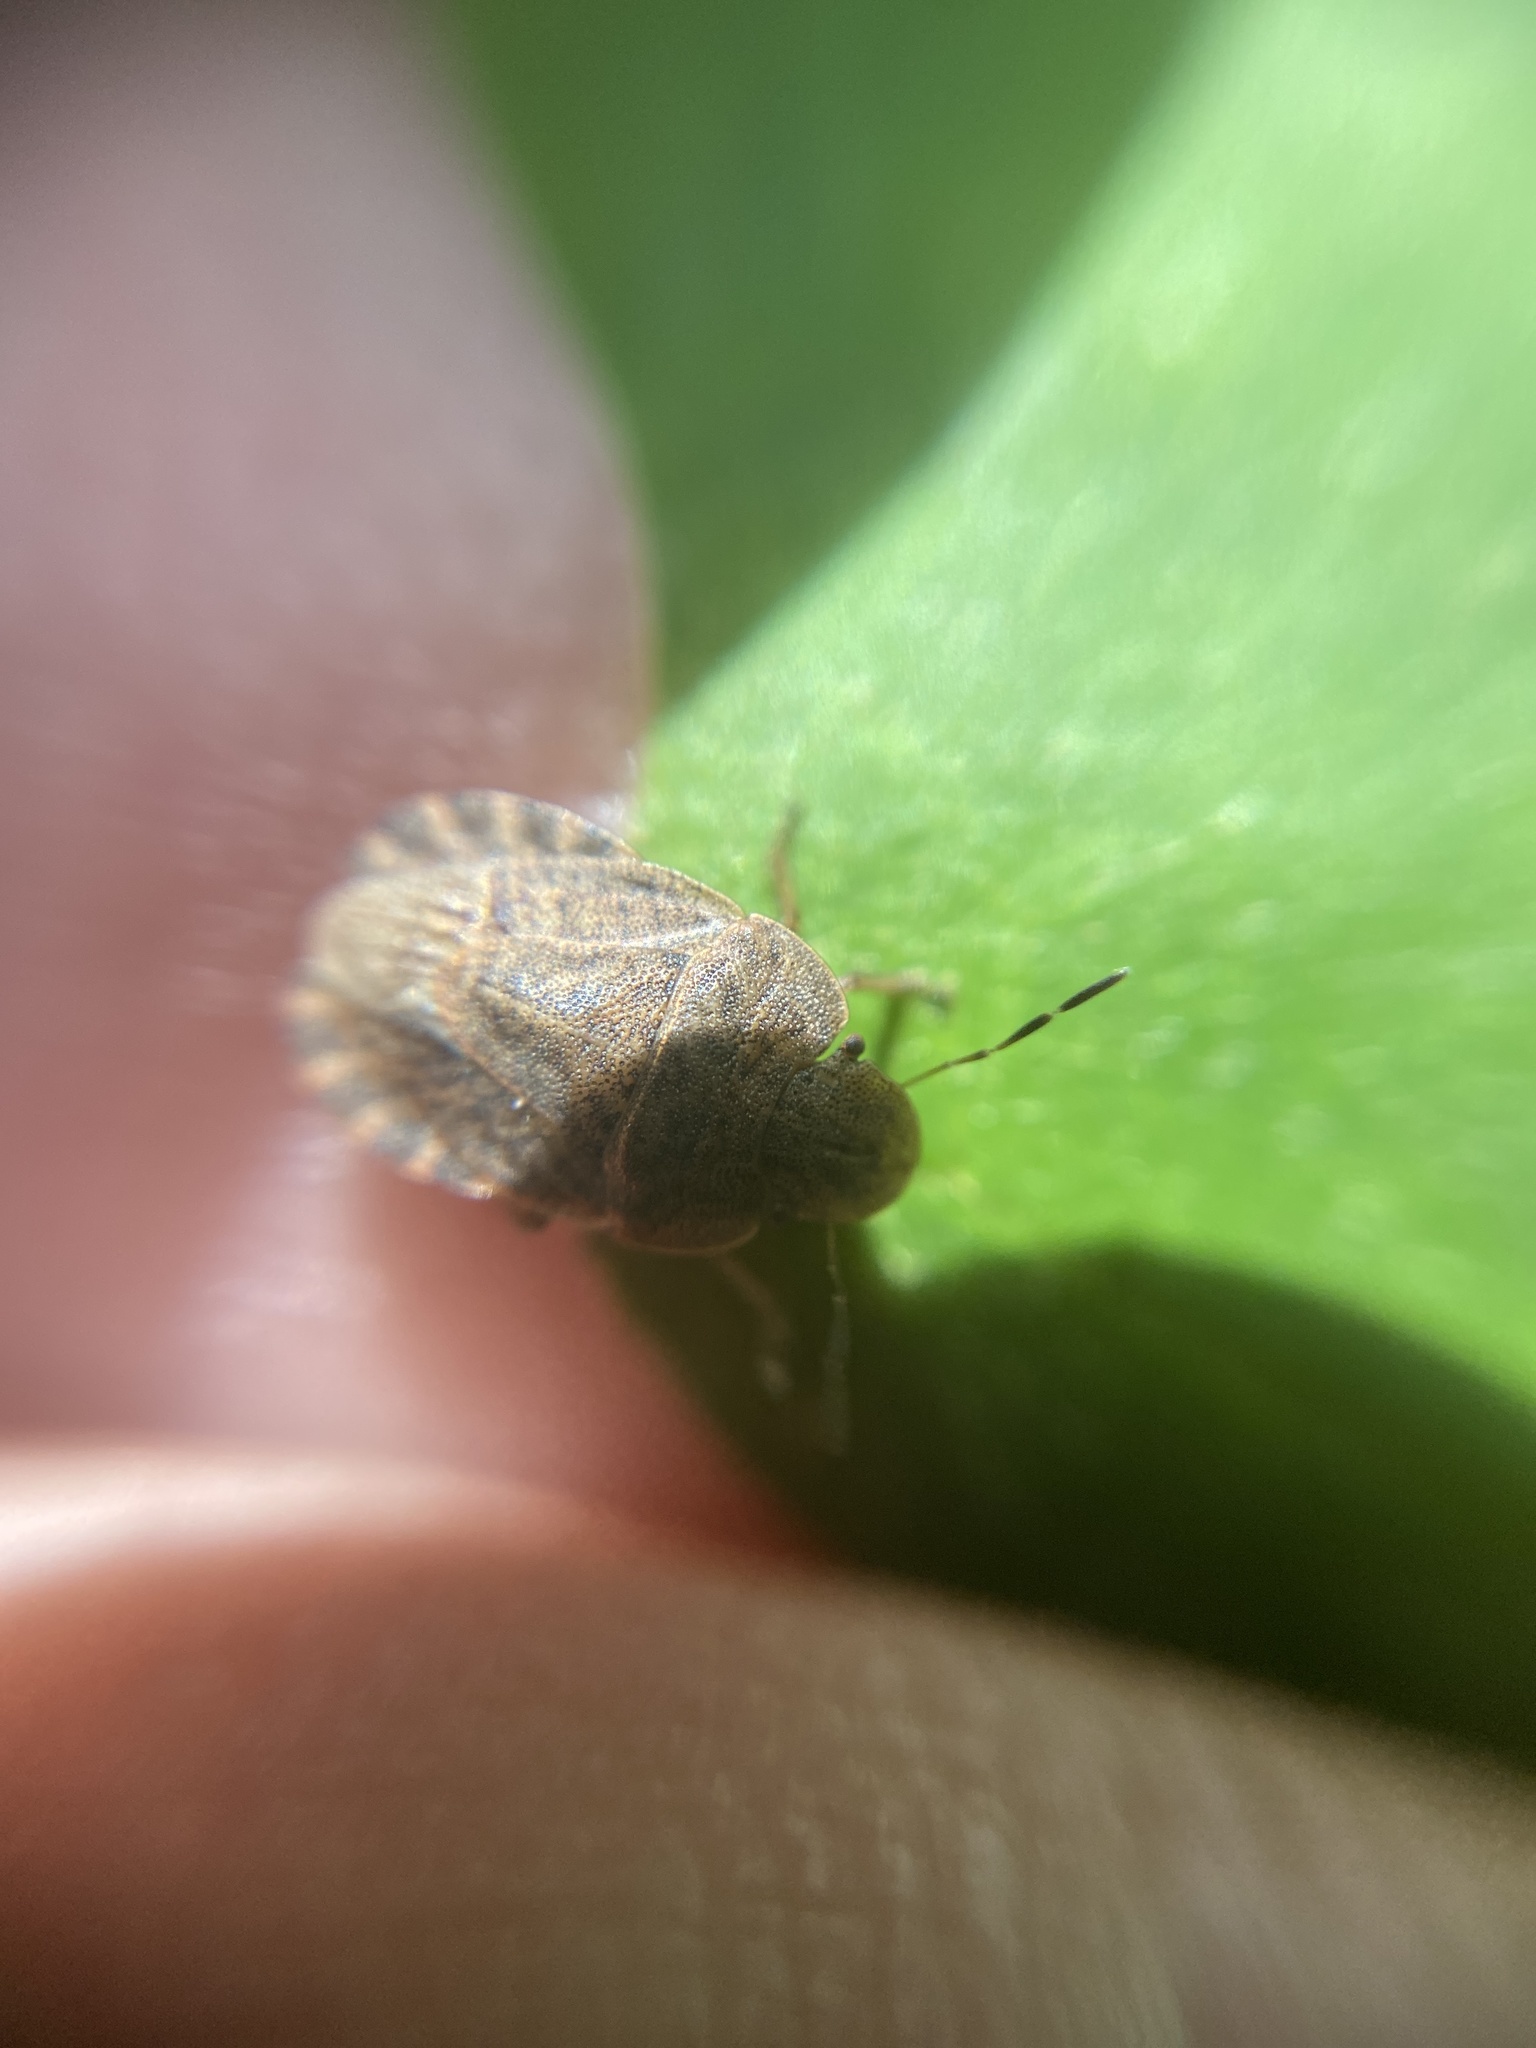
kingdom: Animalia
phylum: Arthropoda
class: Insecta
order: Hemiptera
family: Pentatomidae
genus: Sciocoris
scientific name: Sciocoris macrocephalus
